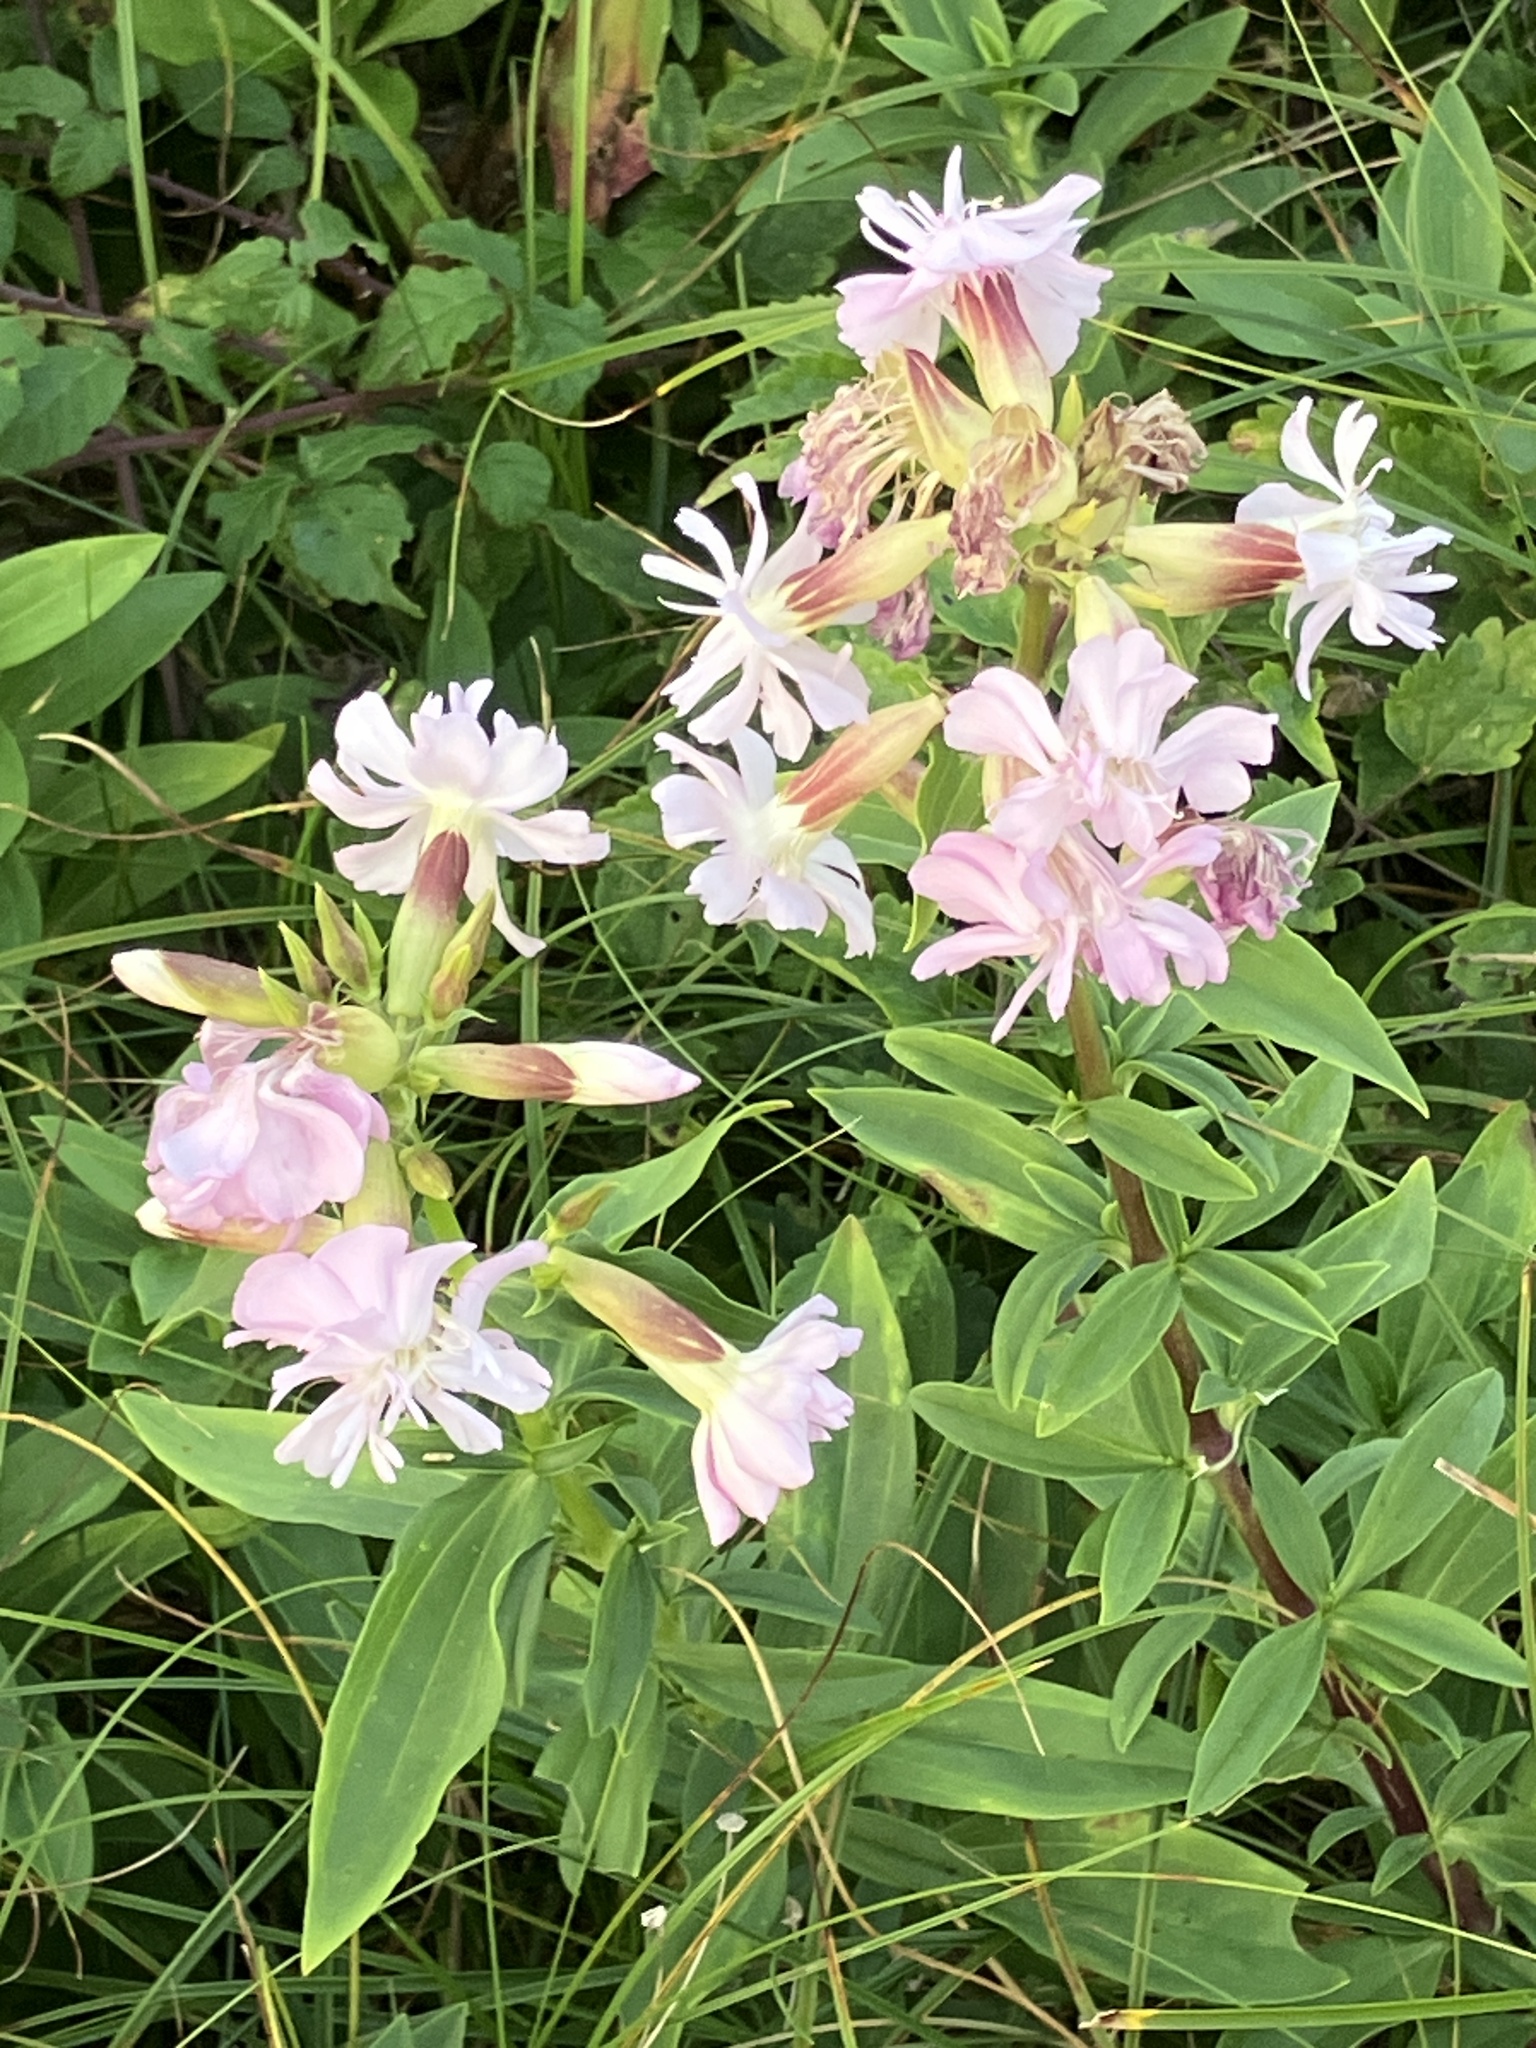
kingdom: Plantae
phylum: Tracheophyta
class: Magnoliopsida
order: Caryophyllales
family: Caryophyllaceae
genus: Saponaria
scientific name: Saponaria officinalis
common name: Soapwort
